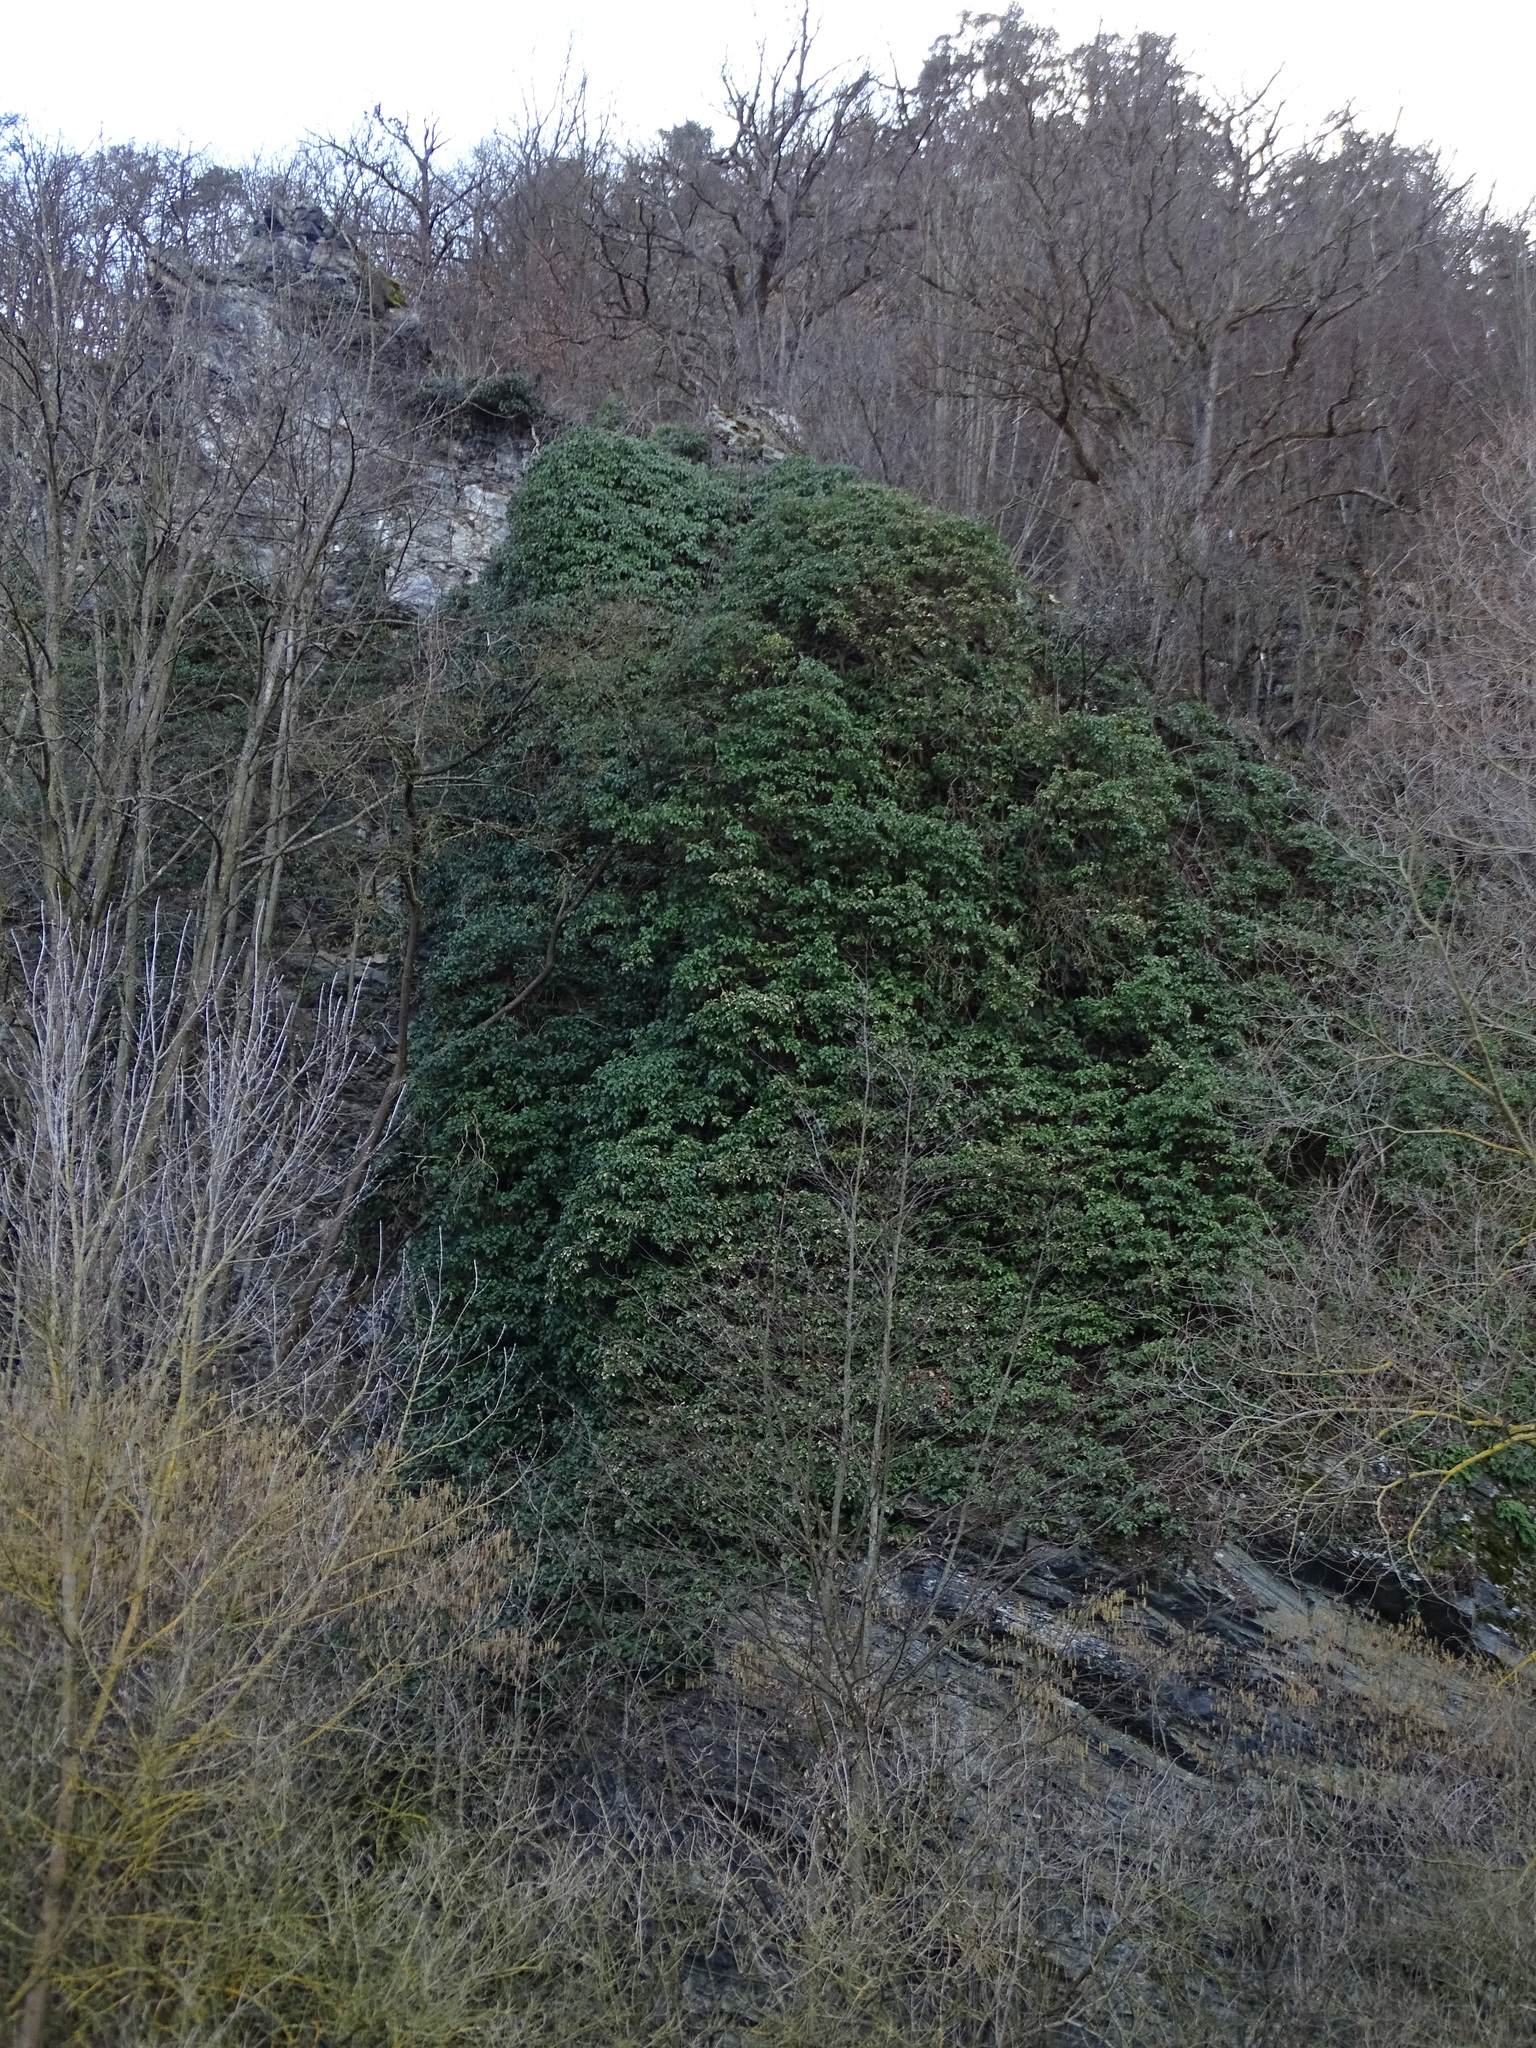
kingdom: Plantae
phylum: Tracheophyta
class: Magnoliopsida
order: Apiales
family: Araliaceae
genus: Hedera
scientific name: Hedera helix
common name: Ivy
